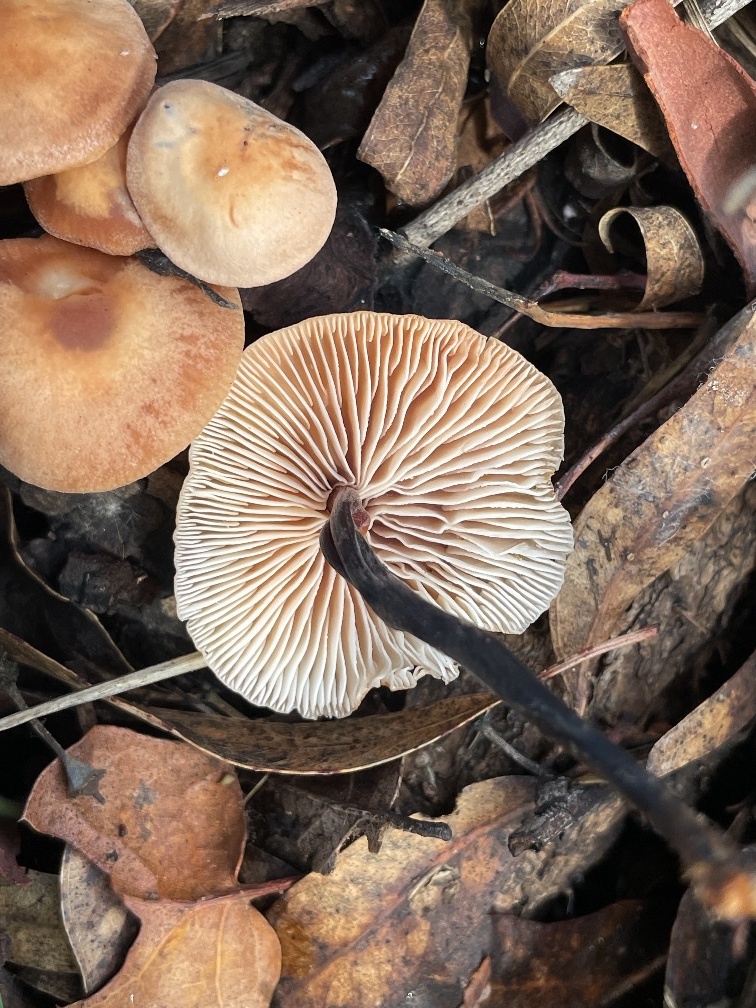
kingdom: Fungi
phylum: Basidiomycota
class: Agaricomycetes
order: Agaricales
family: Omphalotaceae
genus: Gymnopus
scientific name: Gymnopus brassicolens
